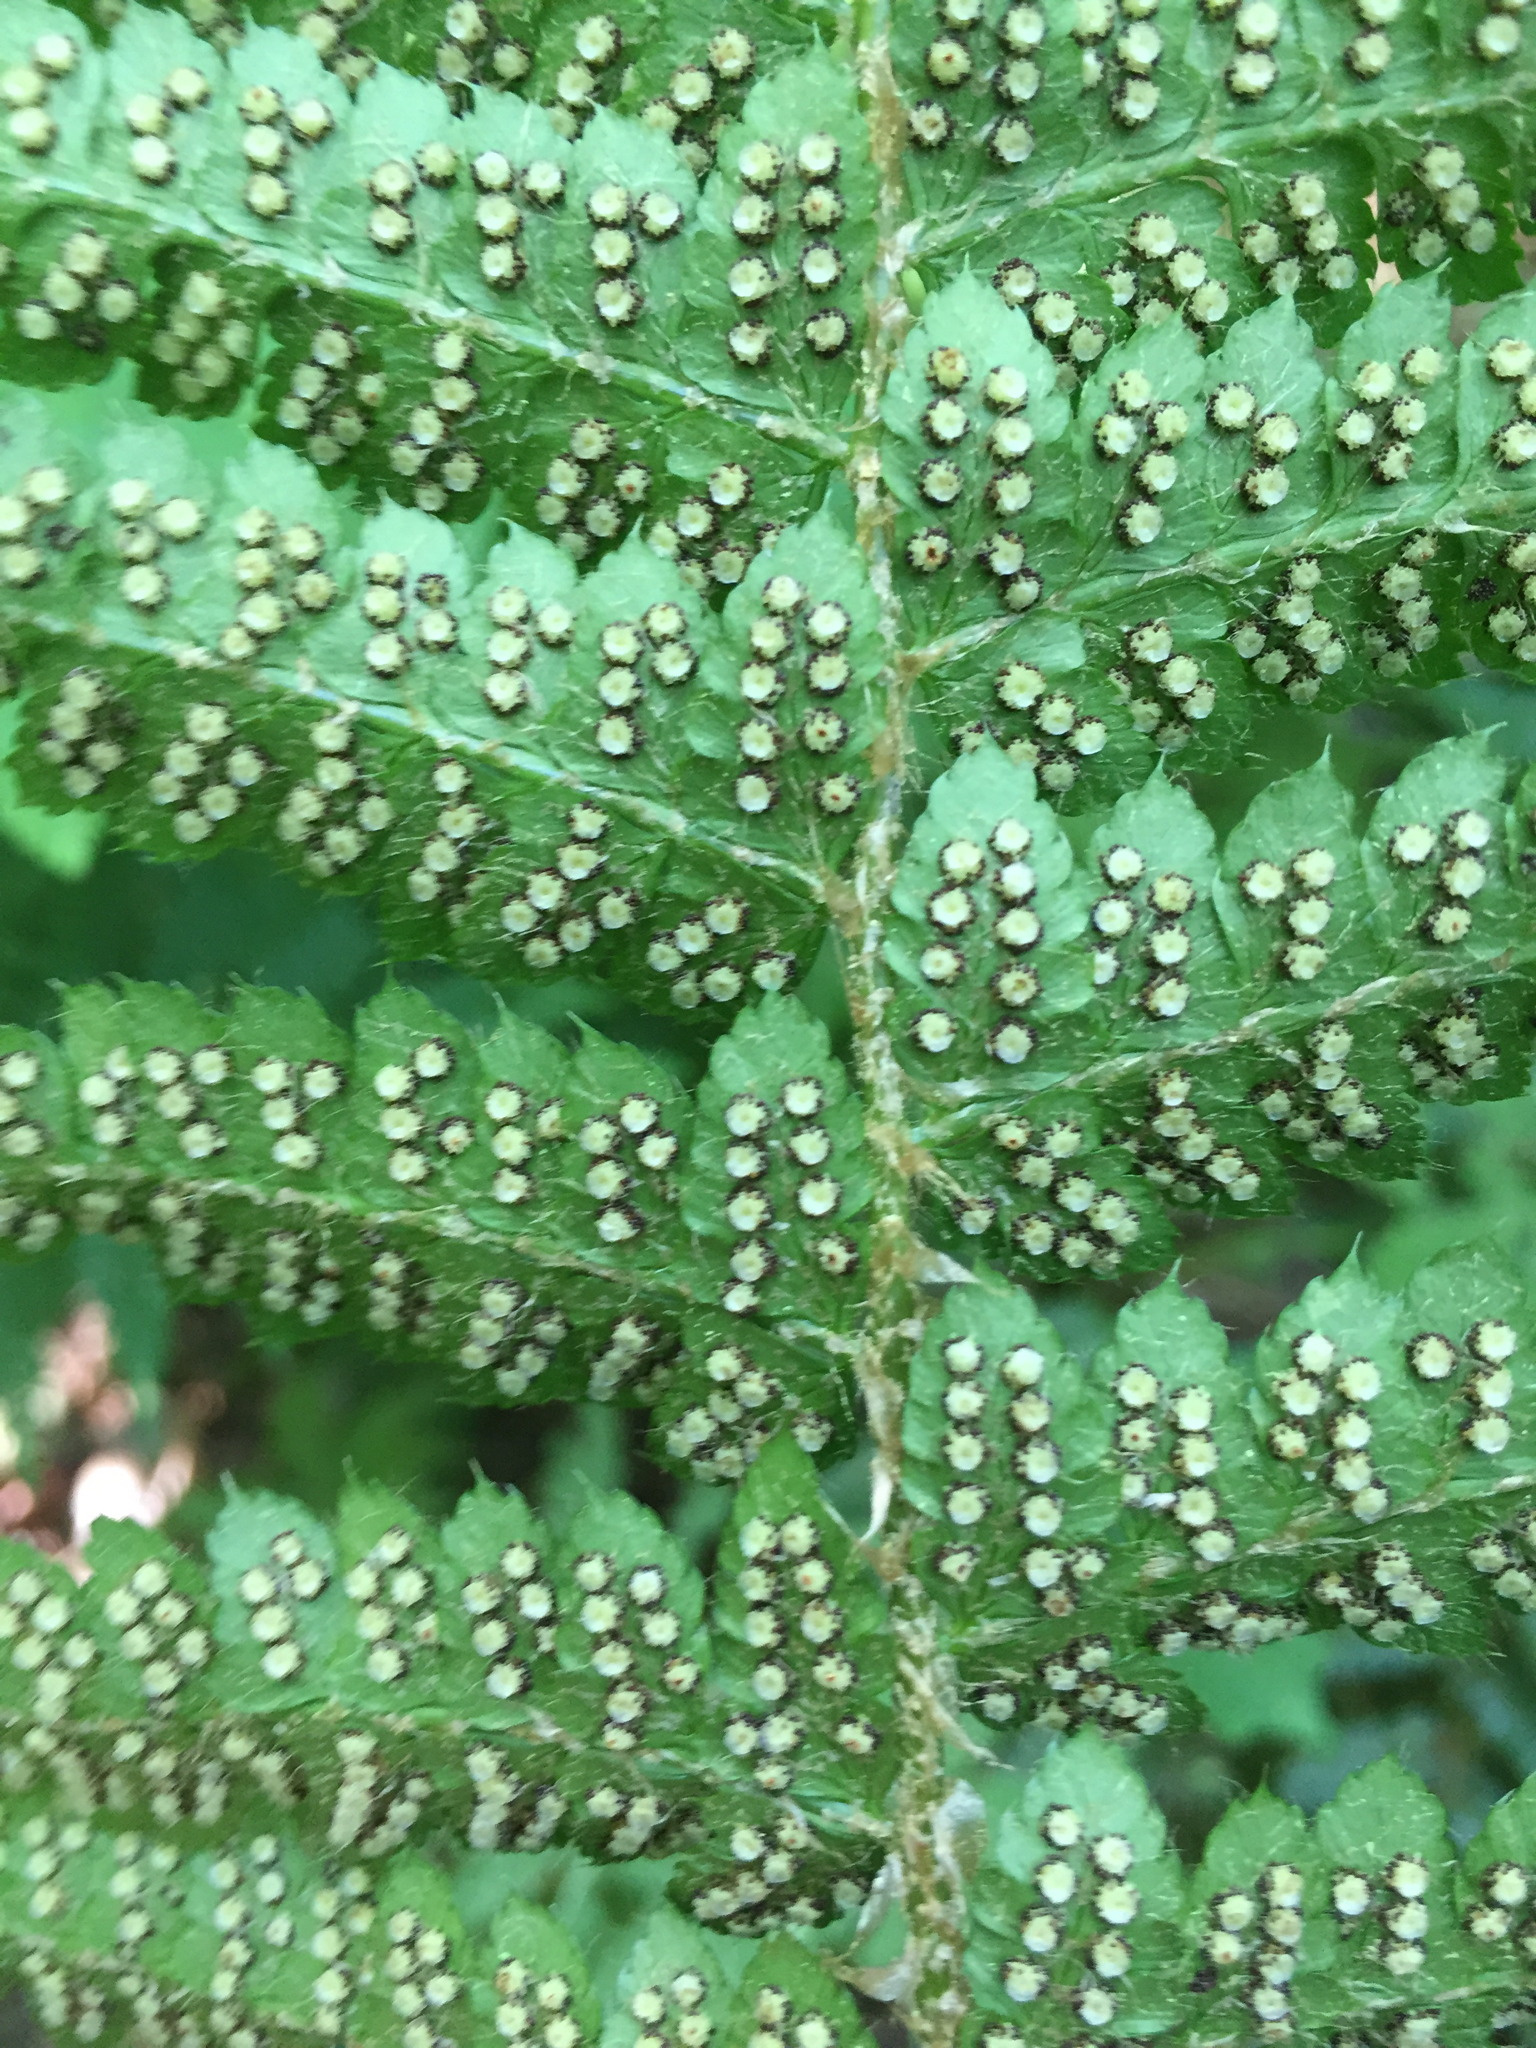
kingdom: Plantae
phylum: Tracheophyta
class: Polypodiopsida
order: Polypodiales
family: Dryopteridaceae
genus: Polystichum
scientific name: Polystichum braunii
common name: Braun's holly fern
